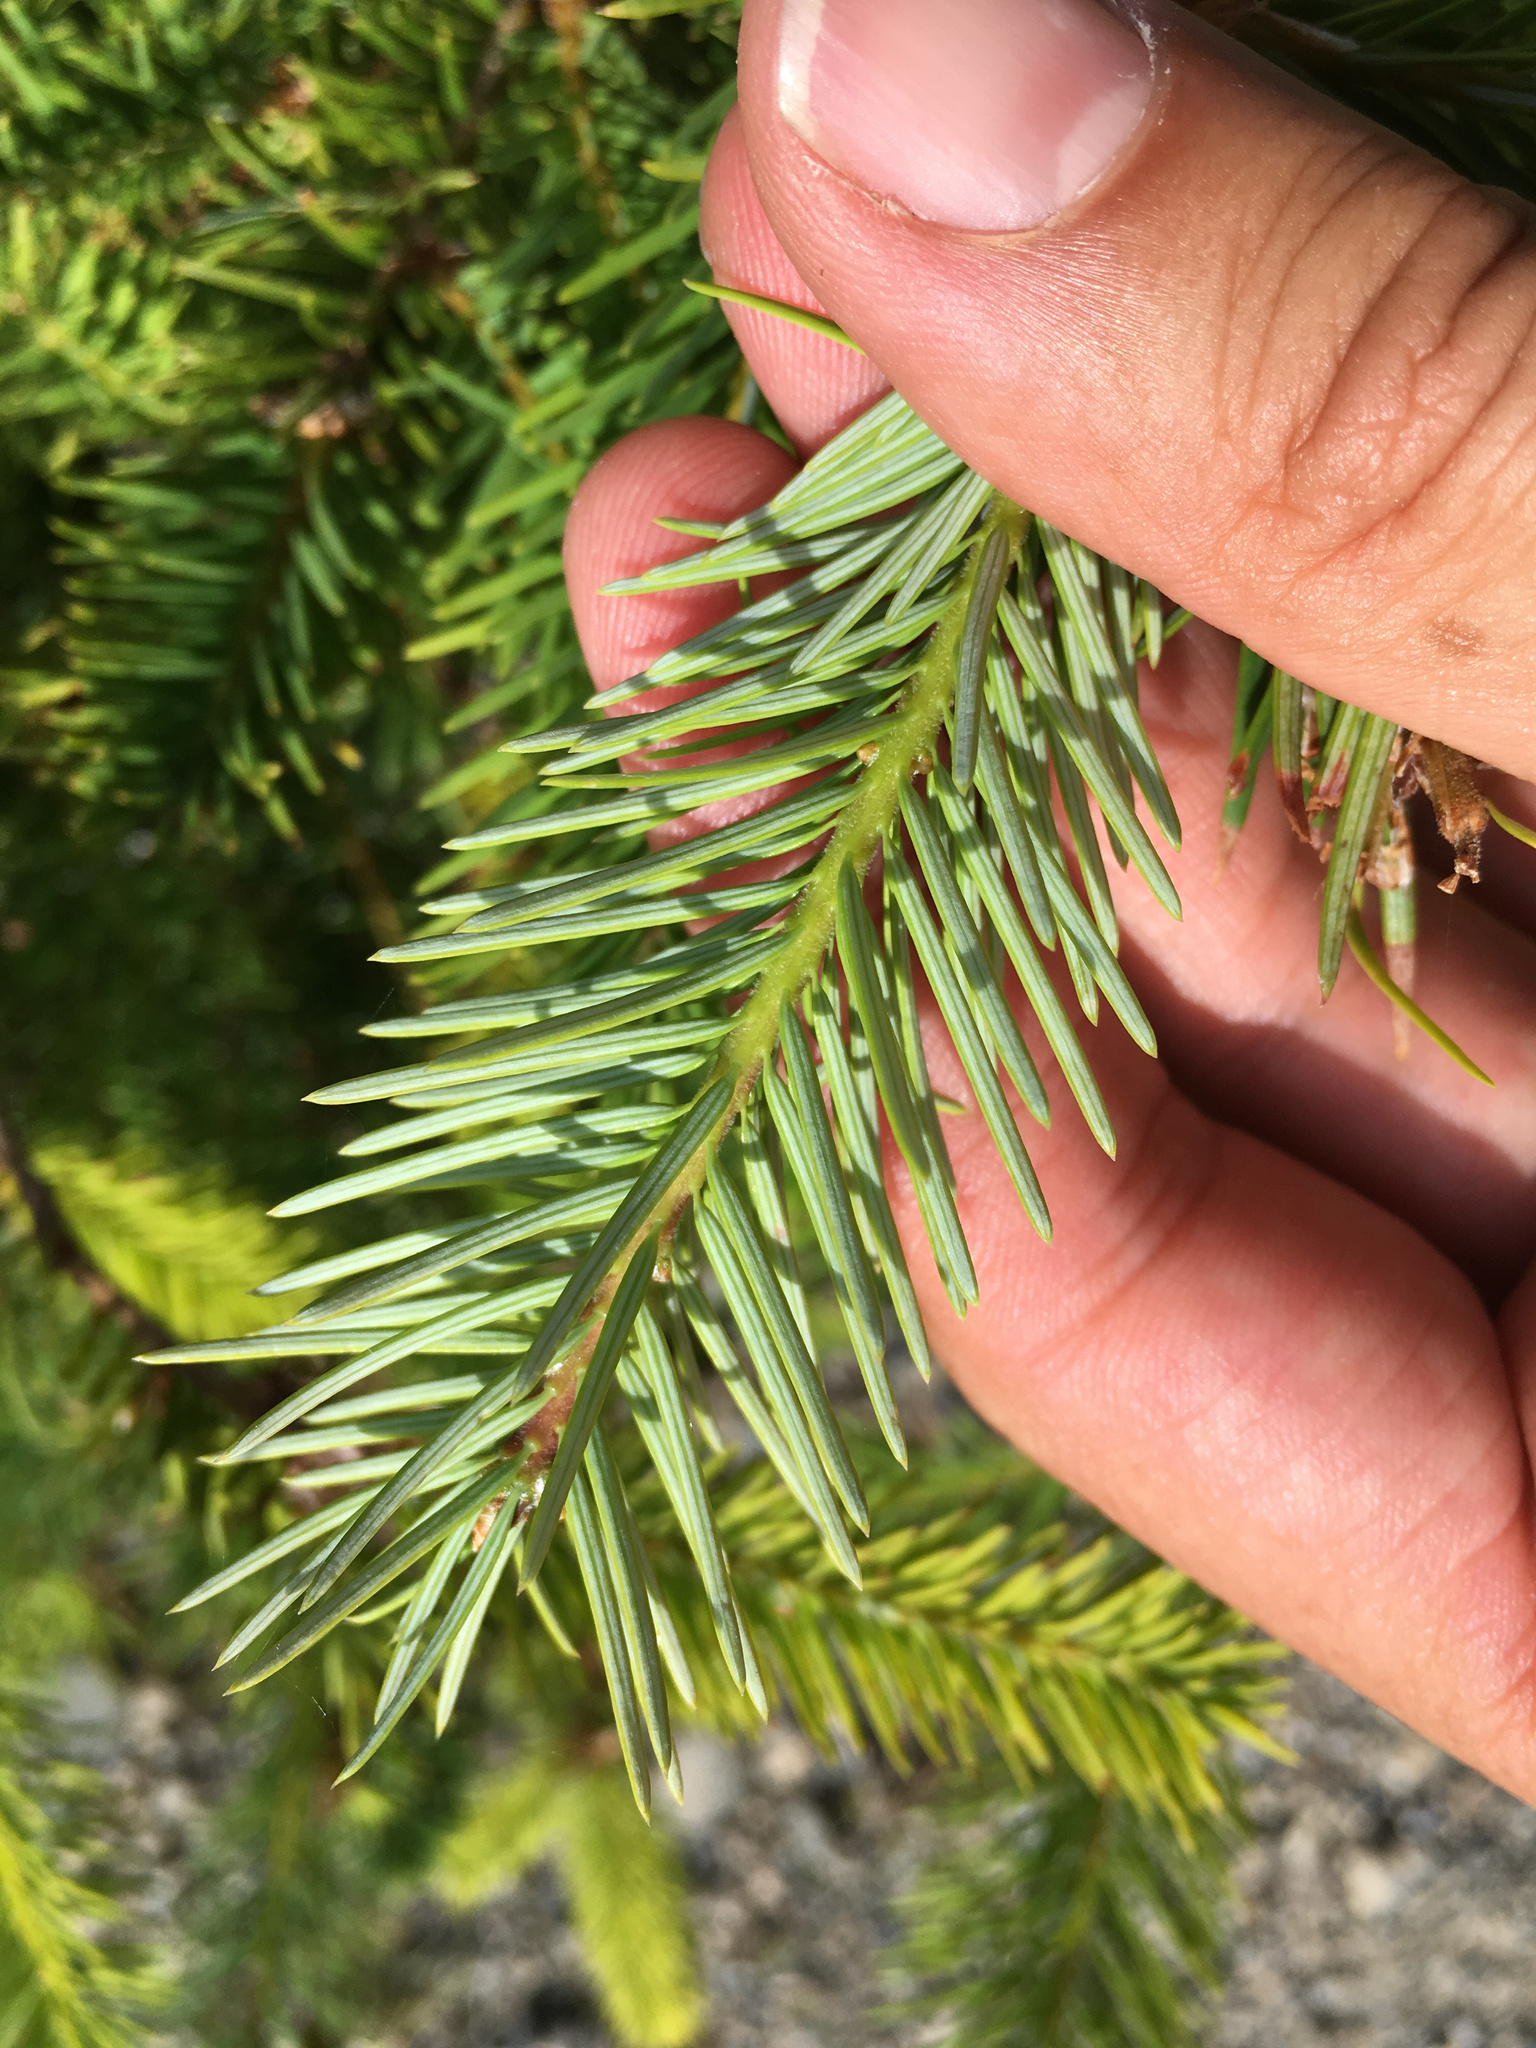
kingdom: Plantae
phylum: Tracheophyta
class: Pinopsida
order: Pinales
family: Pinaceae
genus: Pseudotsuga
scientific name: Pseudotsuga menziesii
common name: Douglas fir
